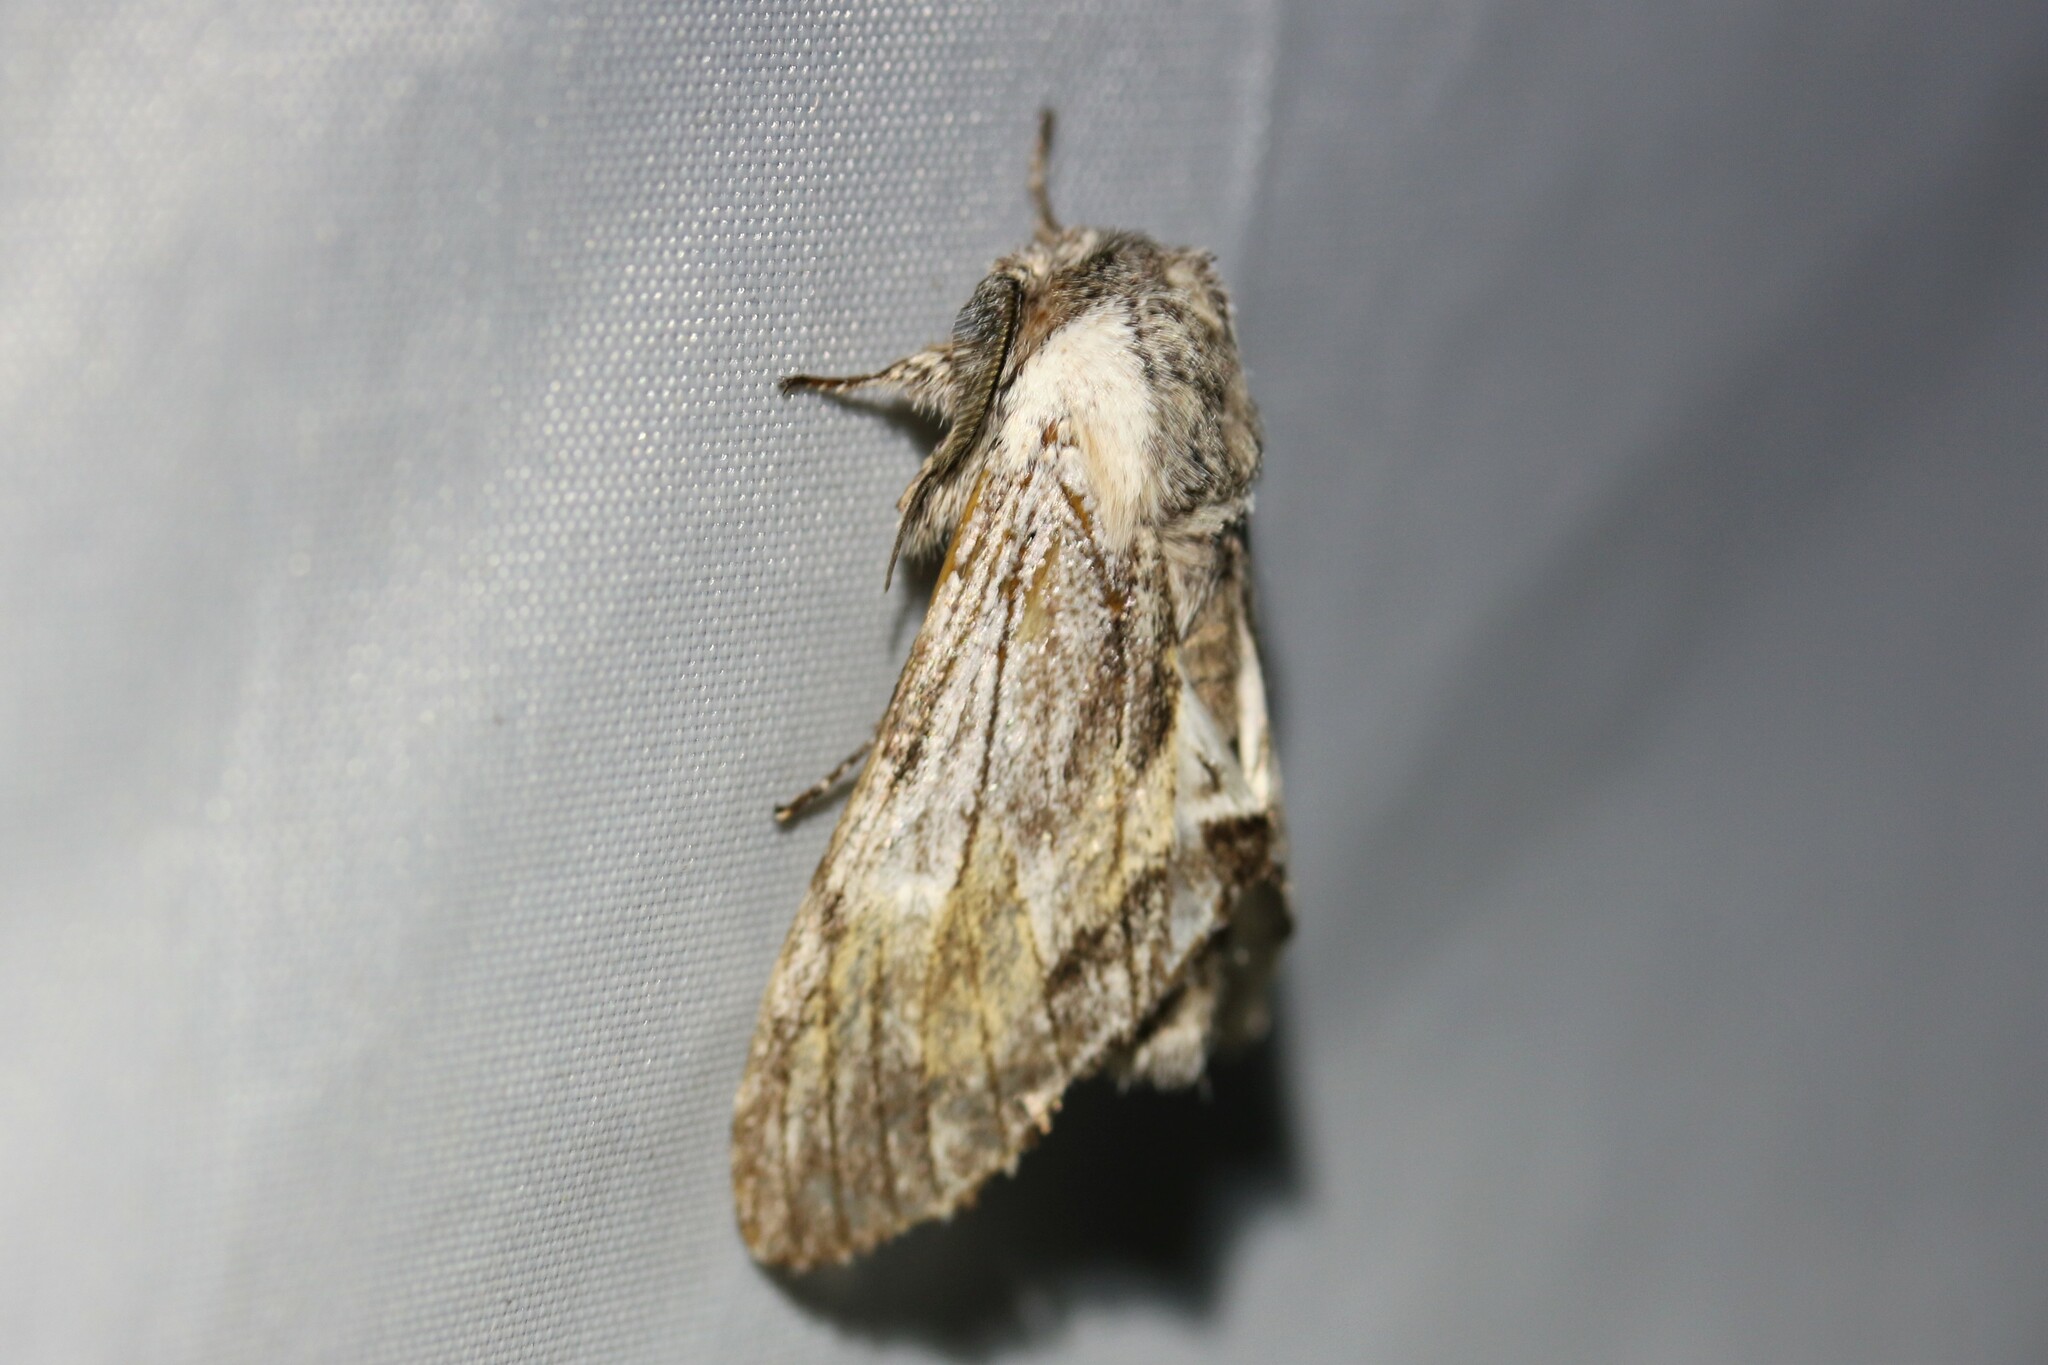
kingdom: Animalia
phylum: Arthropoda
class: Insecta
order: Lepidoptera
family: Notodontidae
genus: Harpyia
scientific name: Harpyia milhauseri
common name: Tawny prominent
